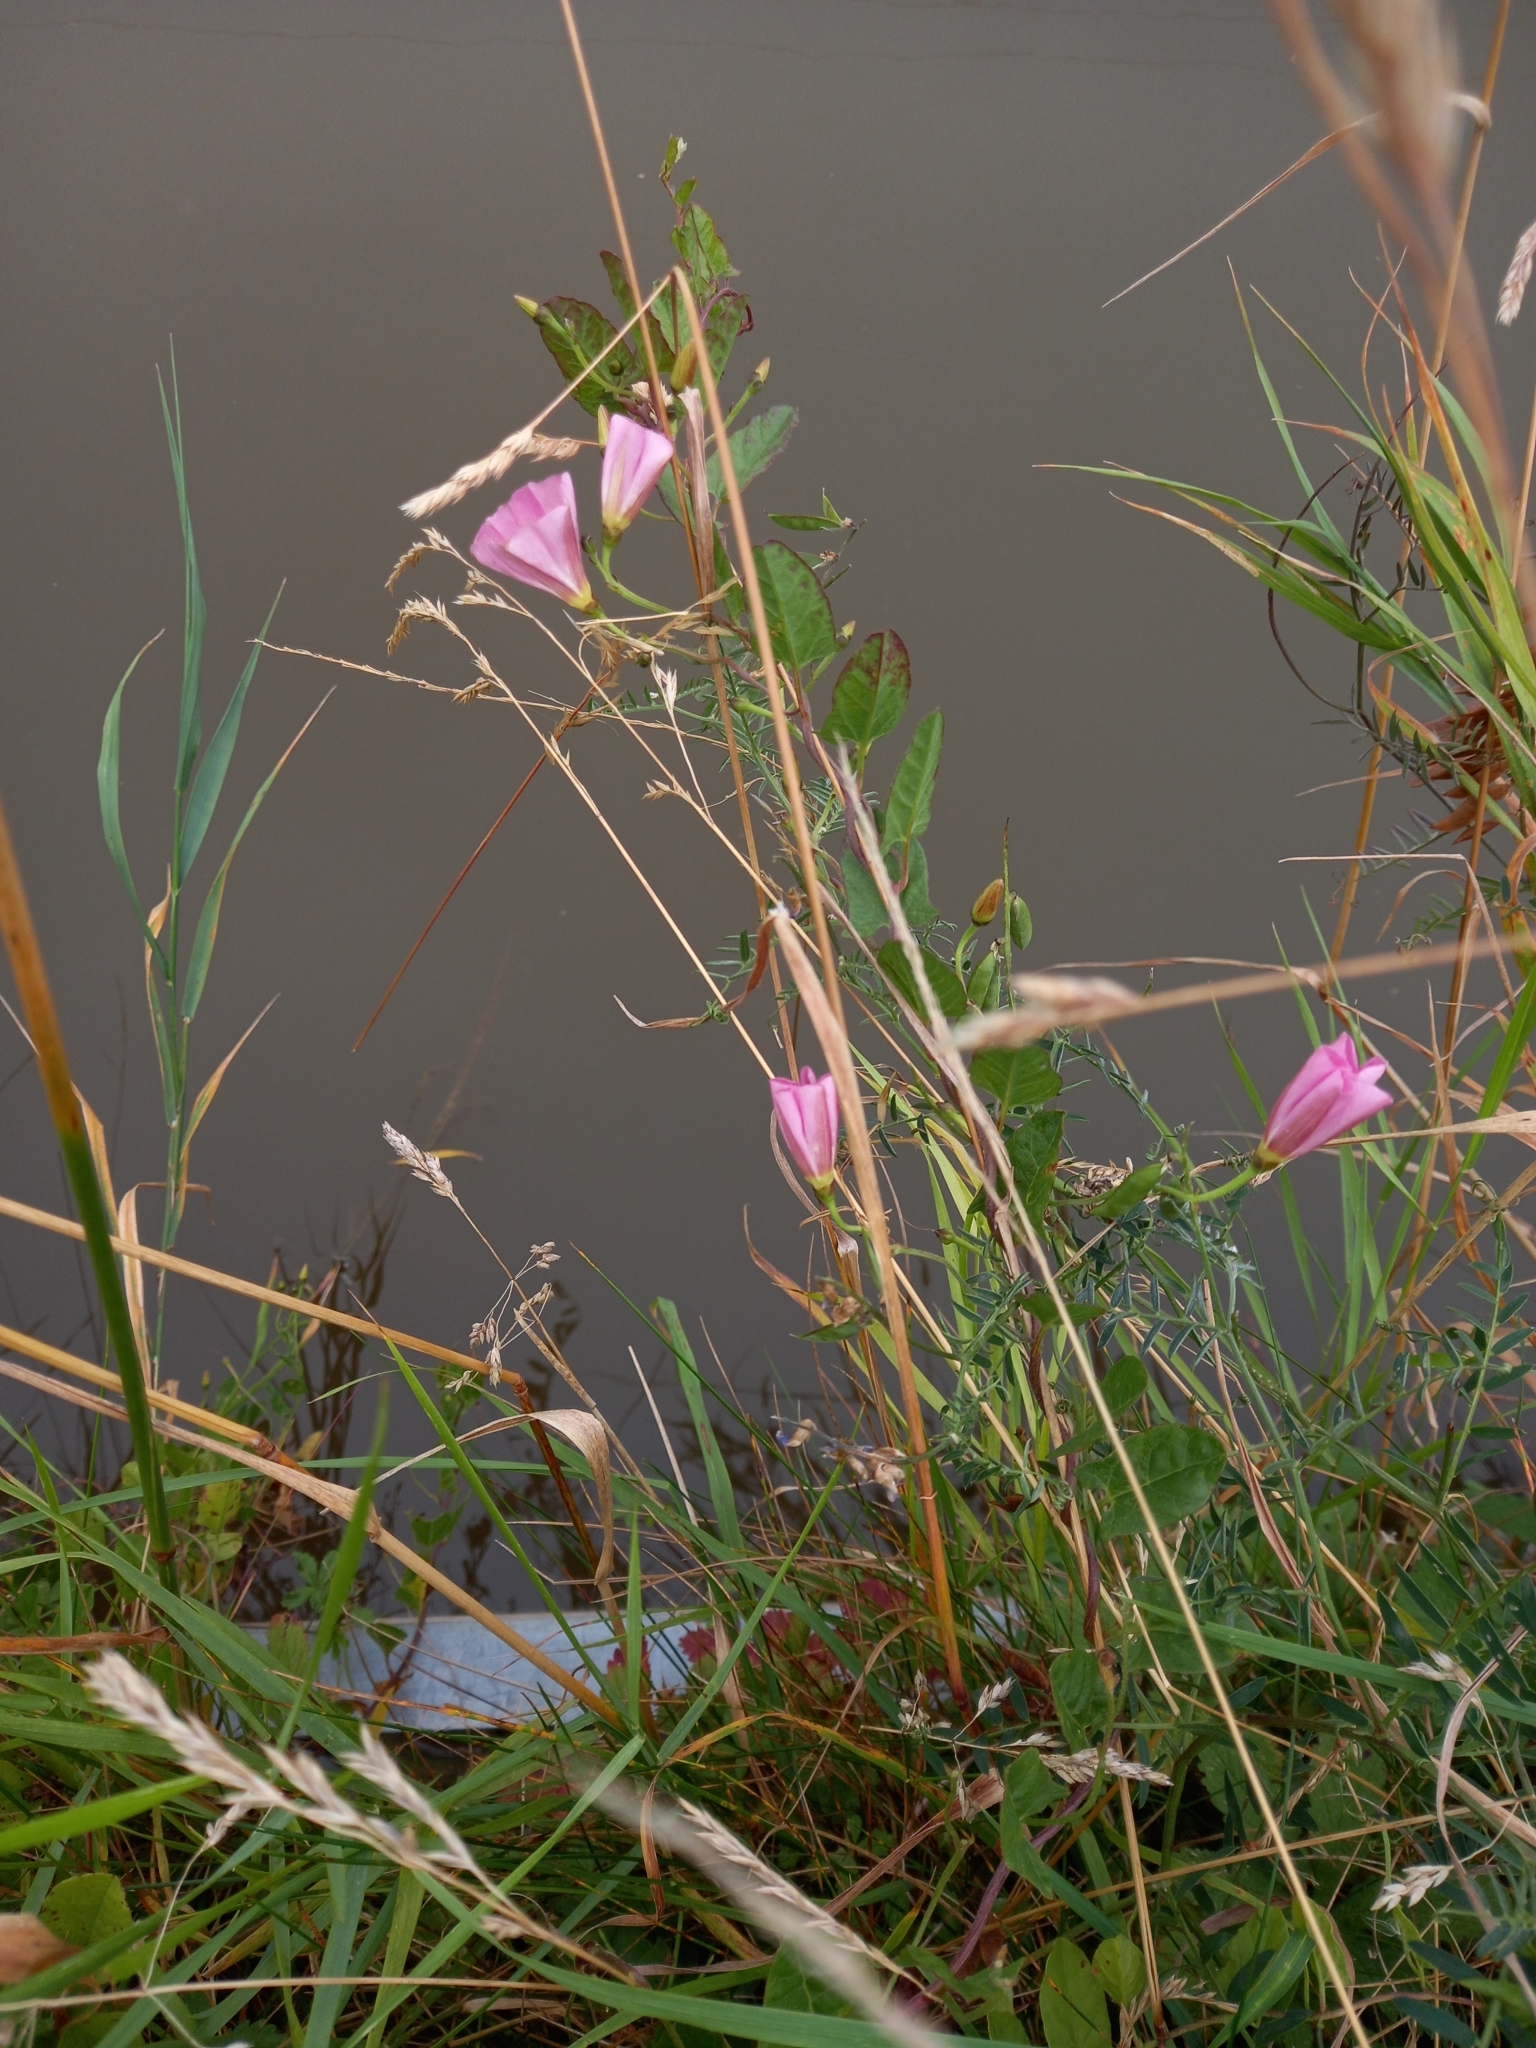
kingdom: Plantae
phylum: Tracheophyta
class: Magnoliopsida
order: Solanales
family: Convolvulaceae
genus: Convolvulus
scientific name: Convolvulus arvensis
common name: Field bindweed
